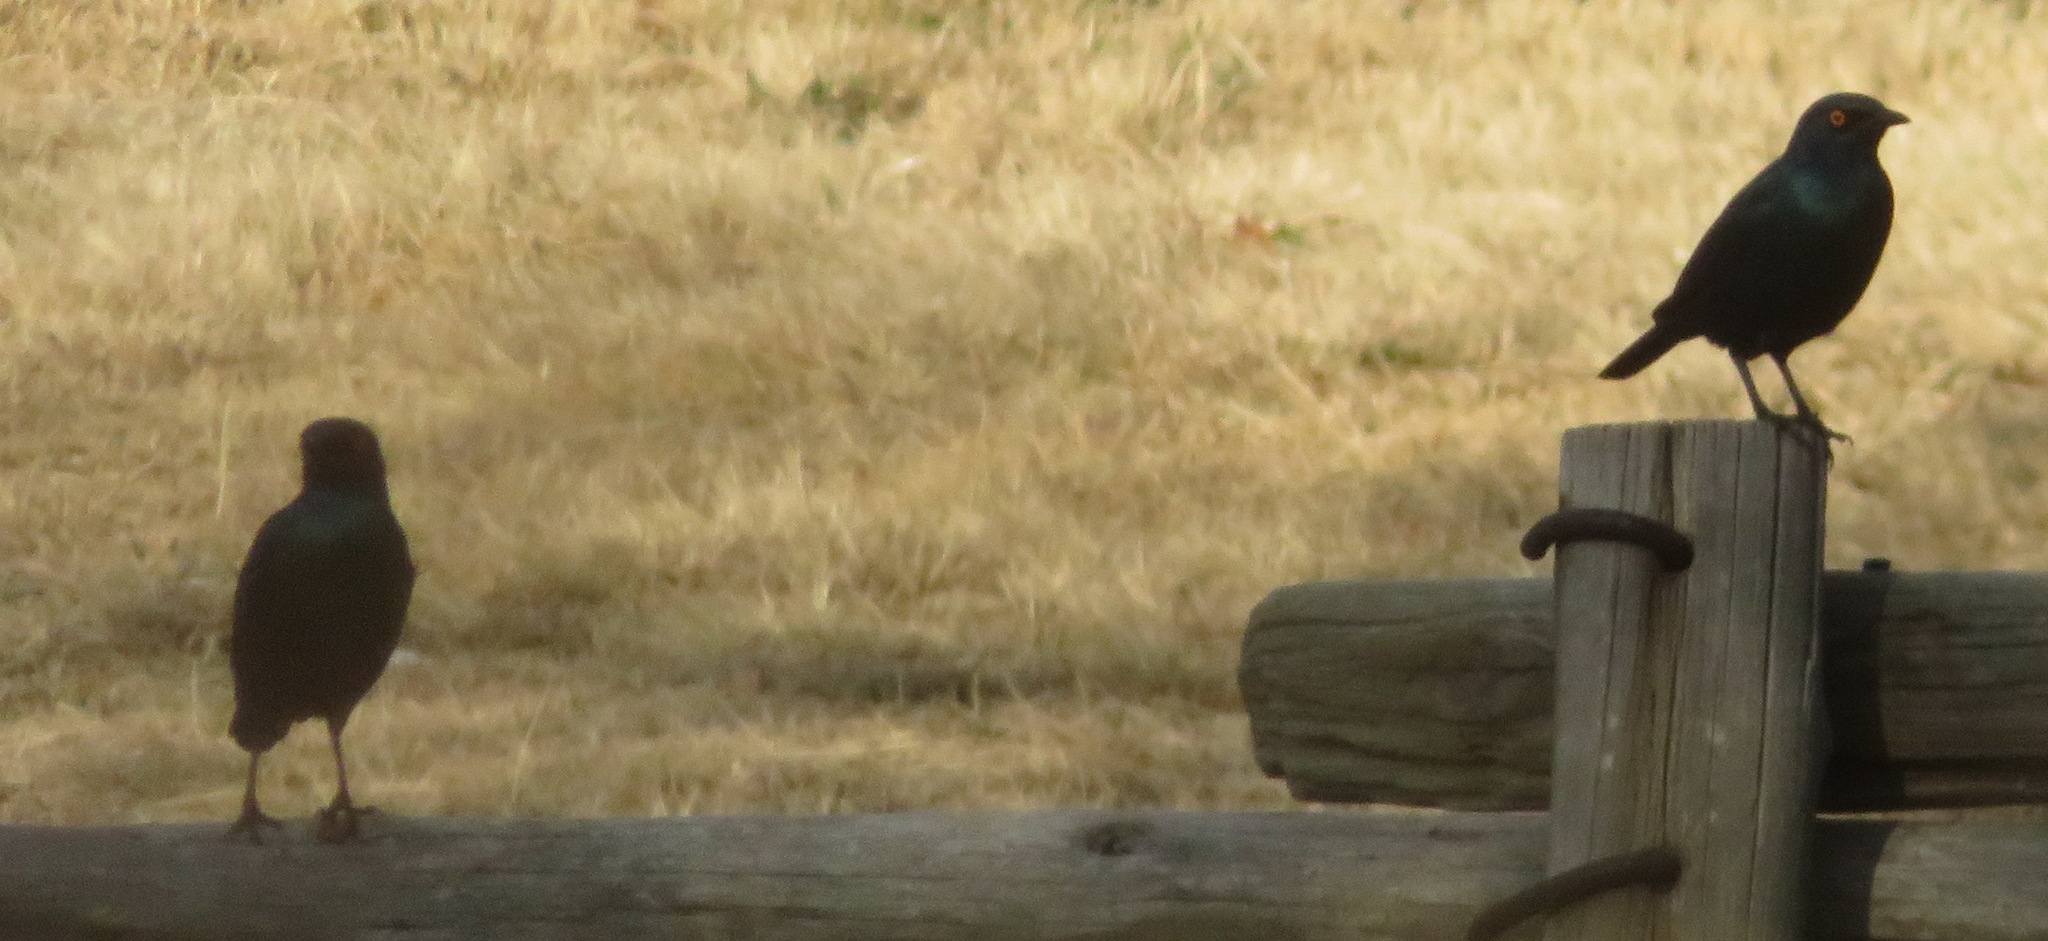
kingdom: Animalia
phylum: Chordata
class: Aves
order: Passeriformes
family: Sturnidae
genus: Lamprotornis
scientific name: Lamprotornis nitens
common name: Cape starling
